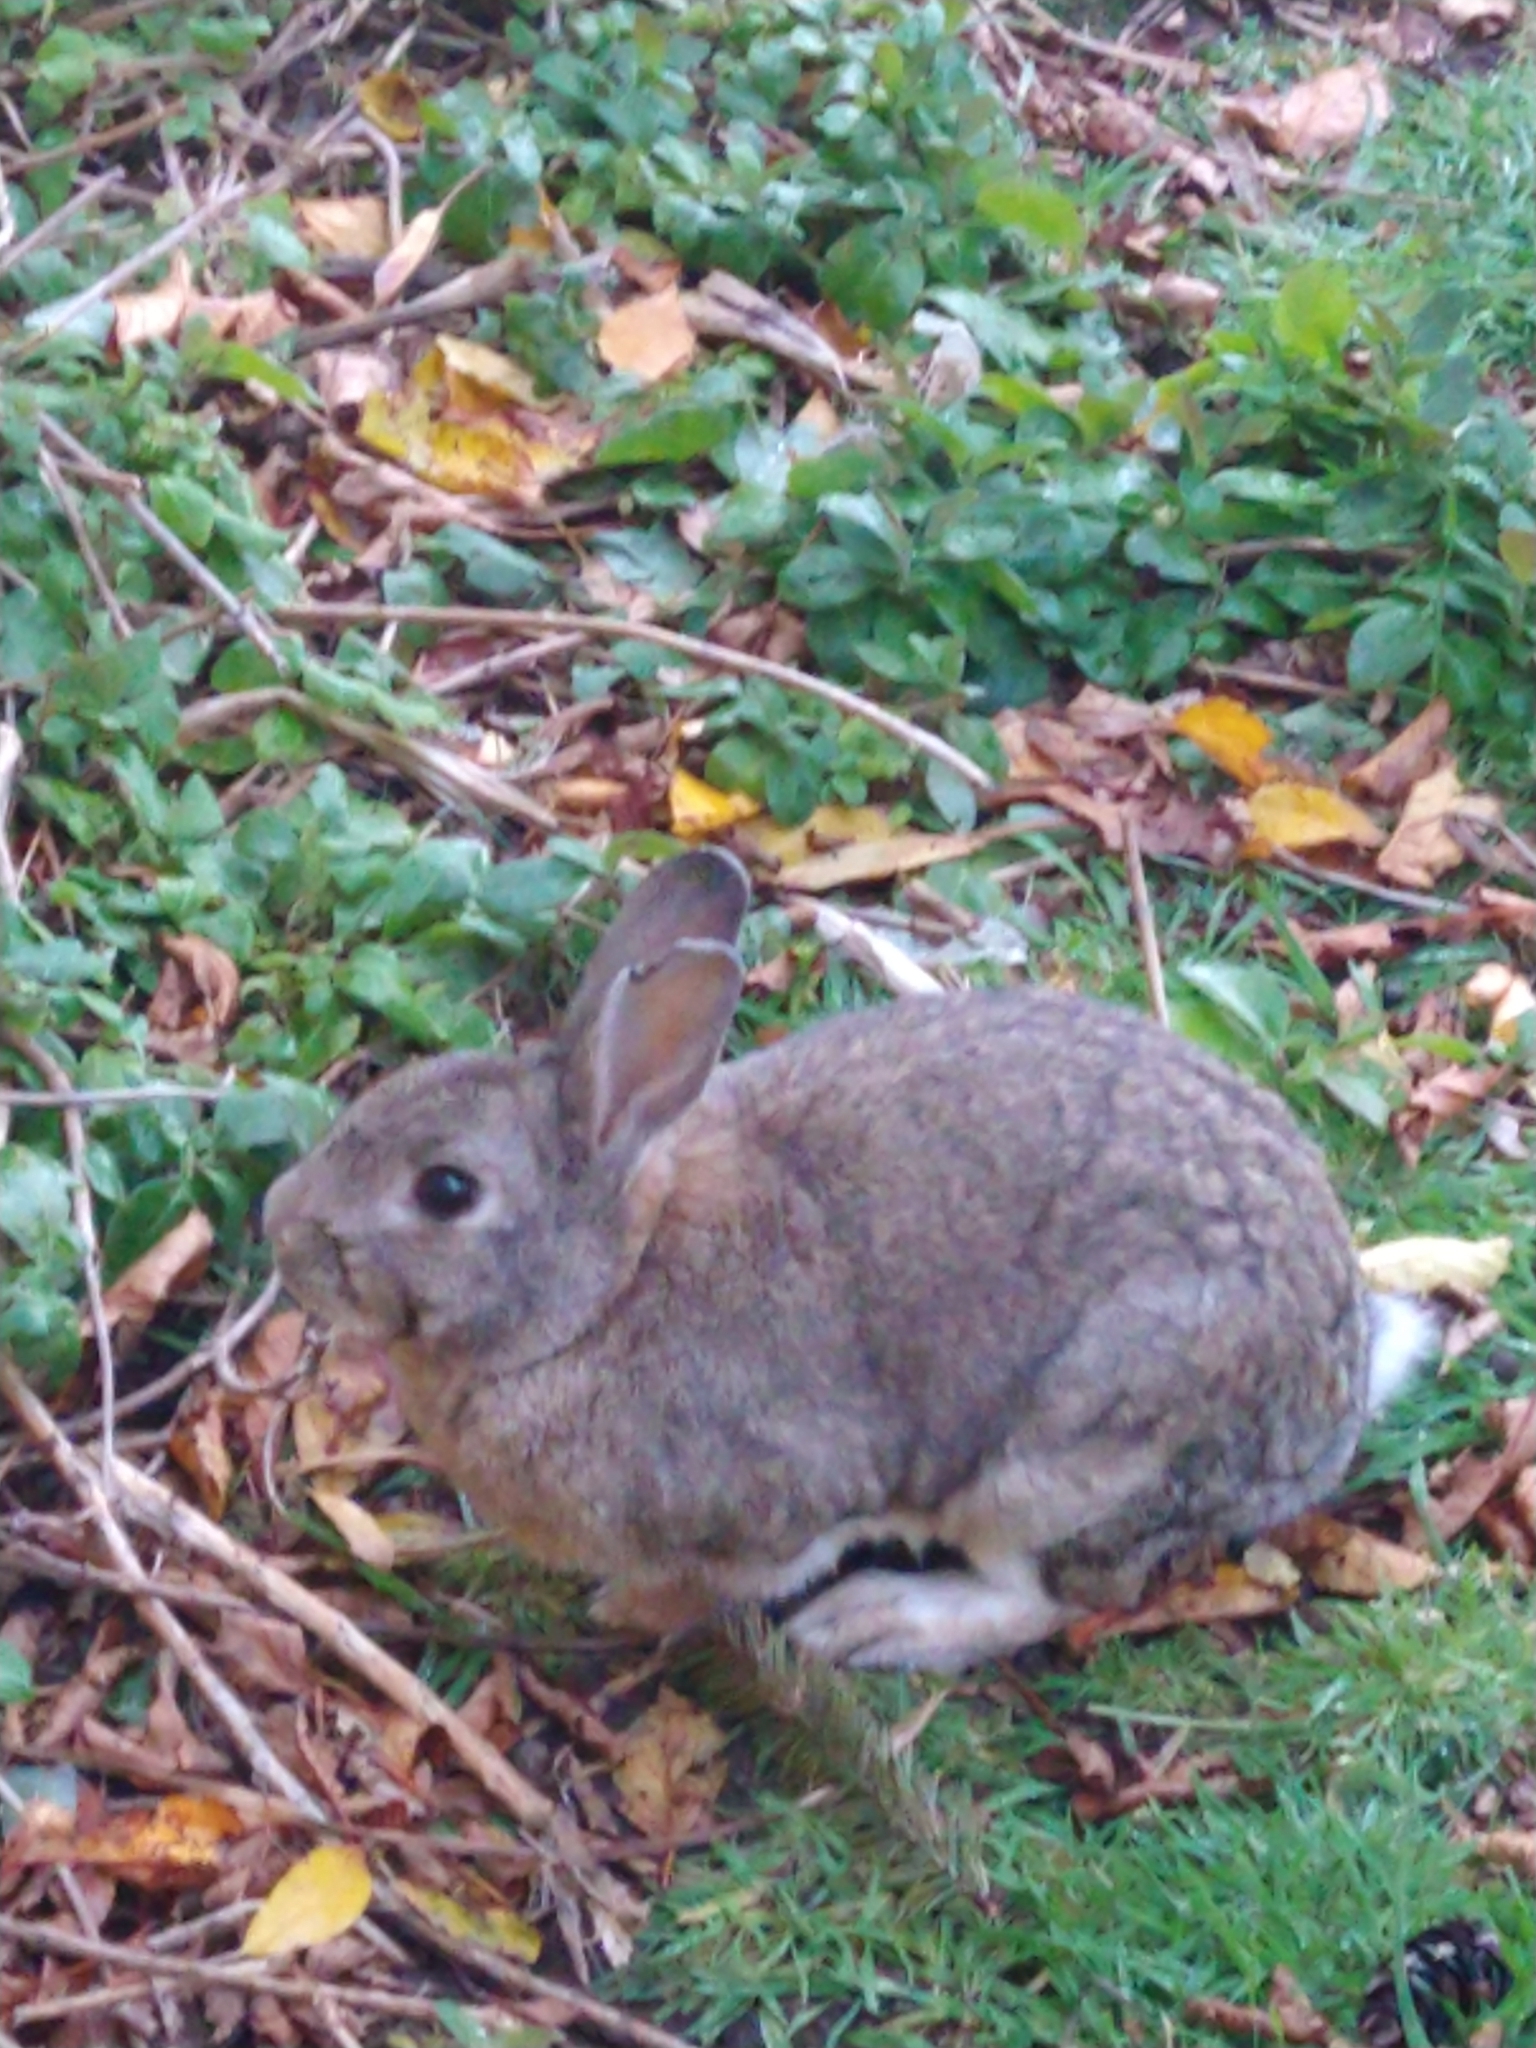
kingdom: Animalia
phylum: Chordata
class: Mammalia
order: Lagomorpha
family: Leporidae
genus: Oryctolagus
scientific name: Oryctolagus cuniculus
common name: European rabbit
